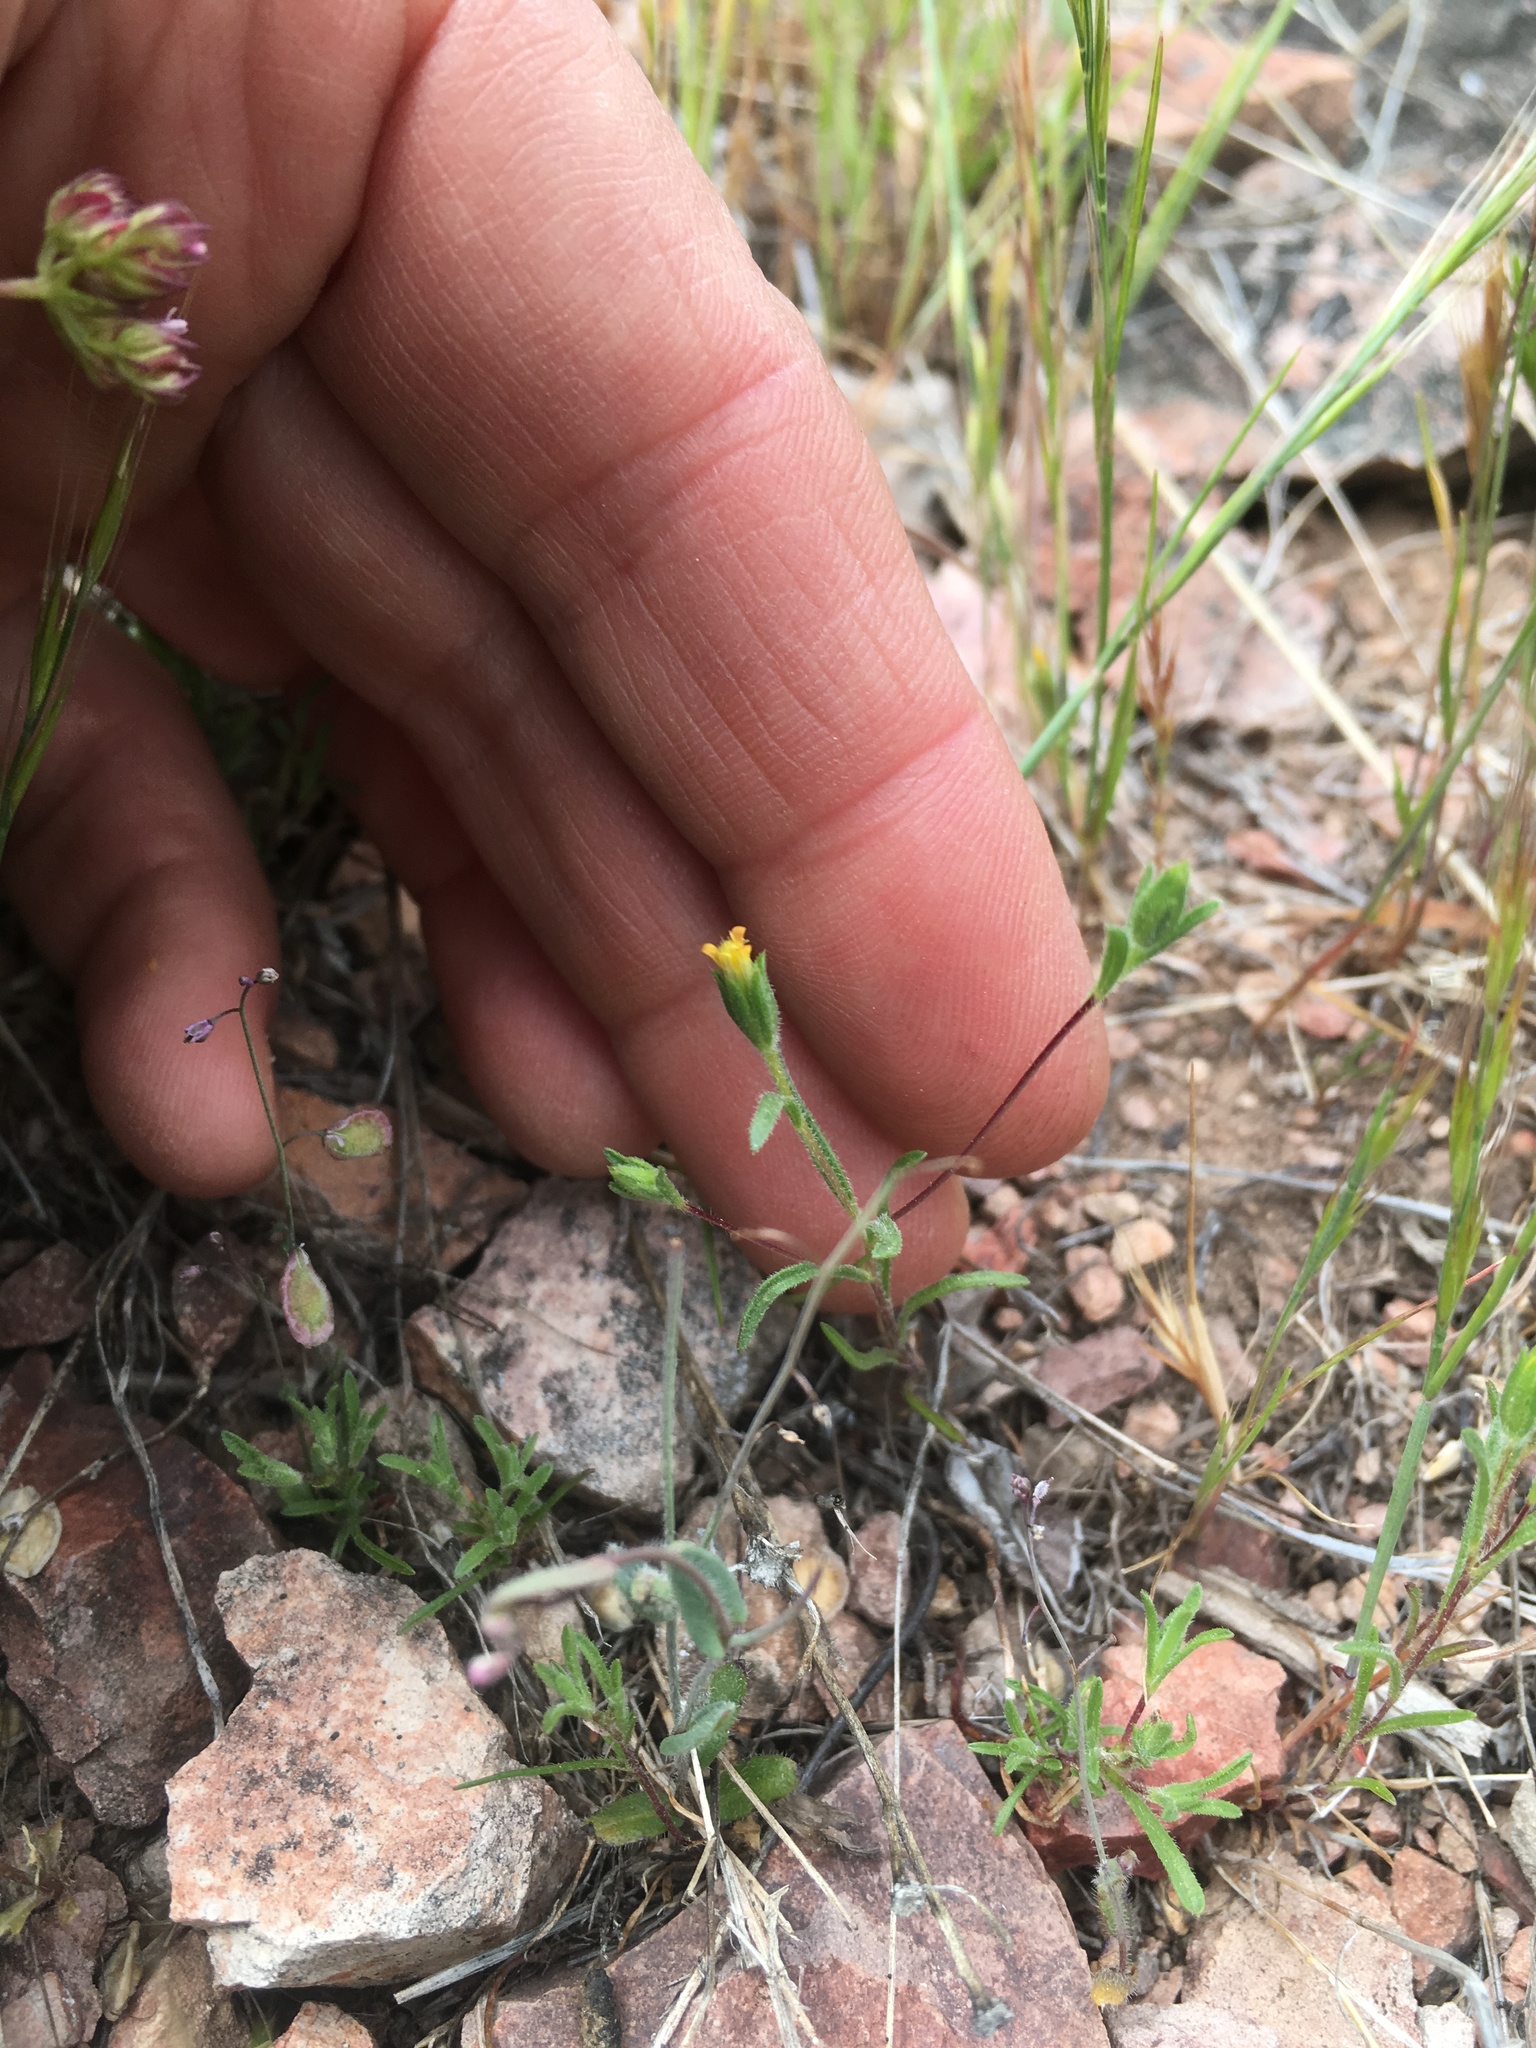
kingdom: Plantae
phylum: Tracheophyta
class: Magnoliopsida
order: Asterales
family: Asteraceae
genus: Rigiopappus
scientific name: Rigiopappus leptocladus
